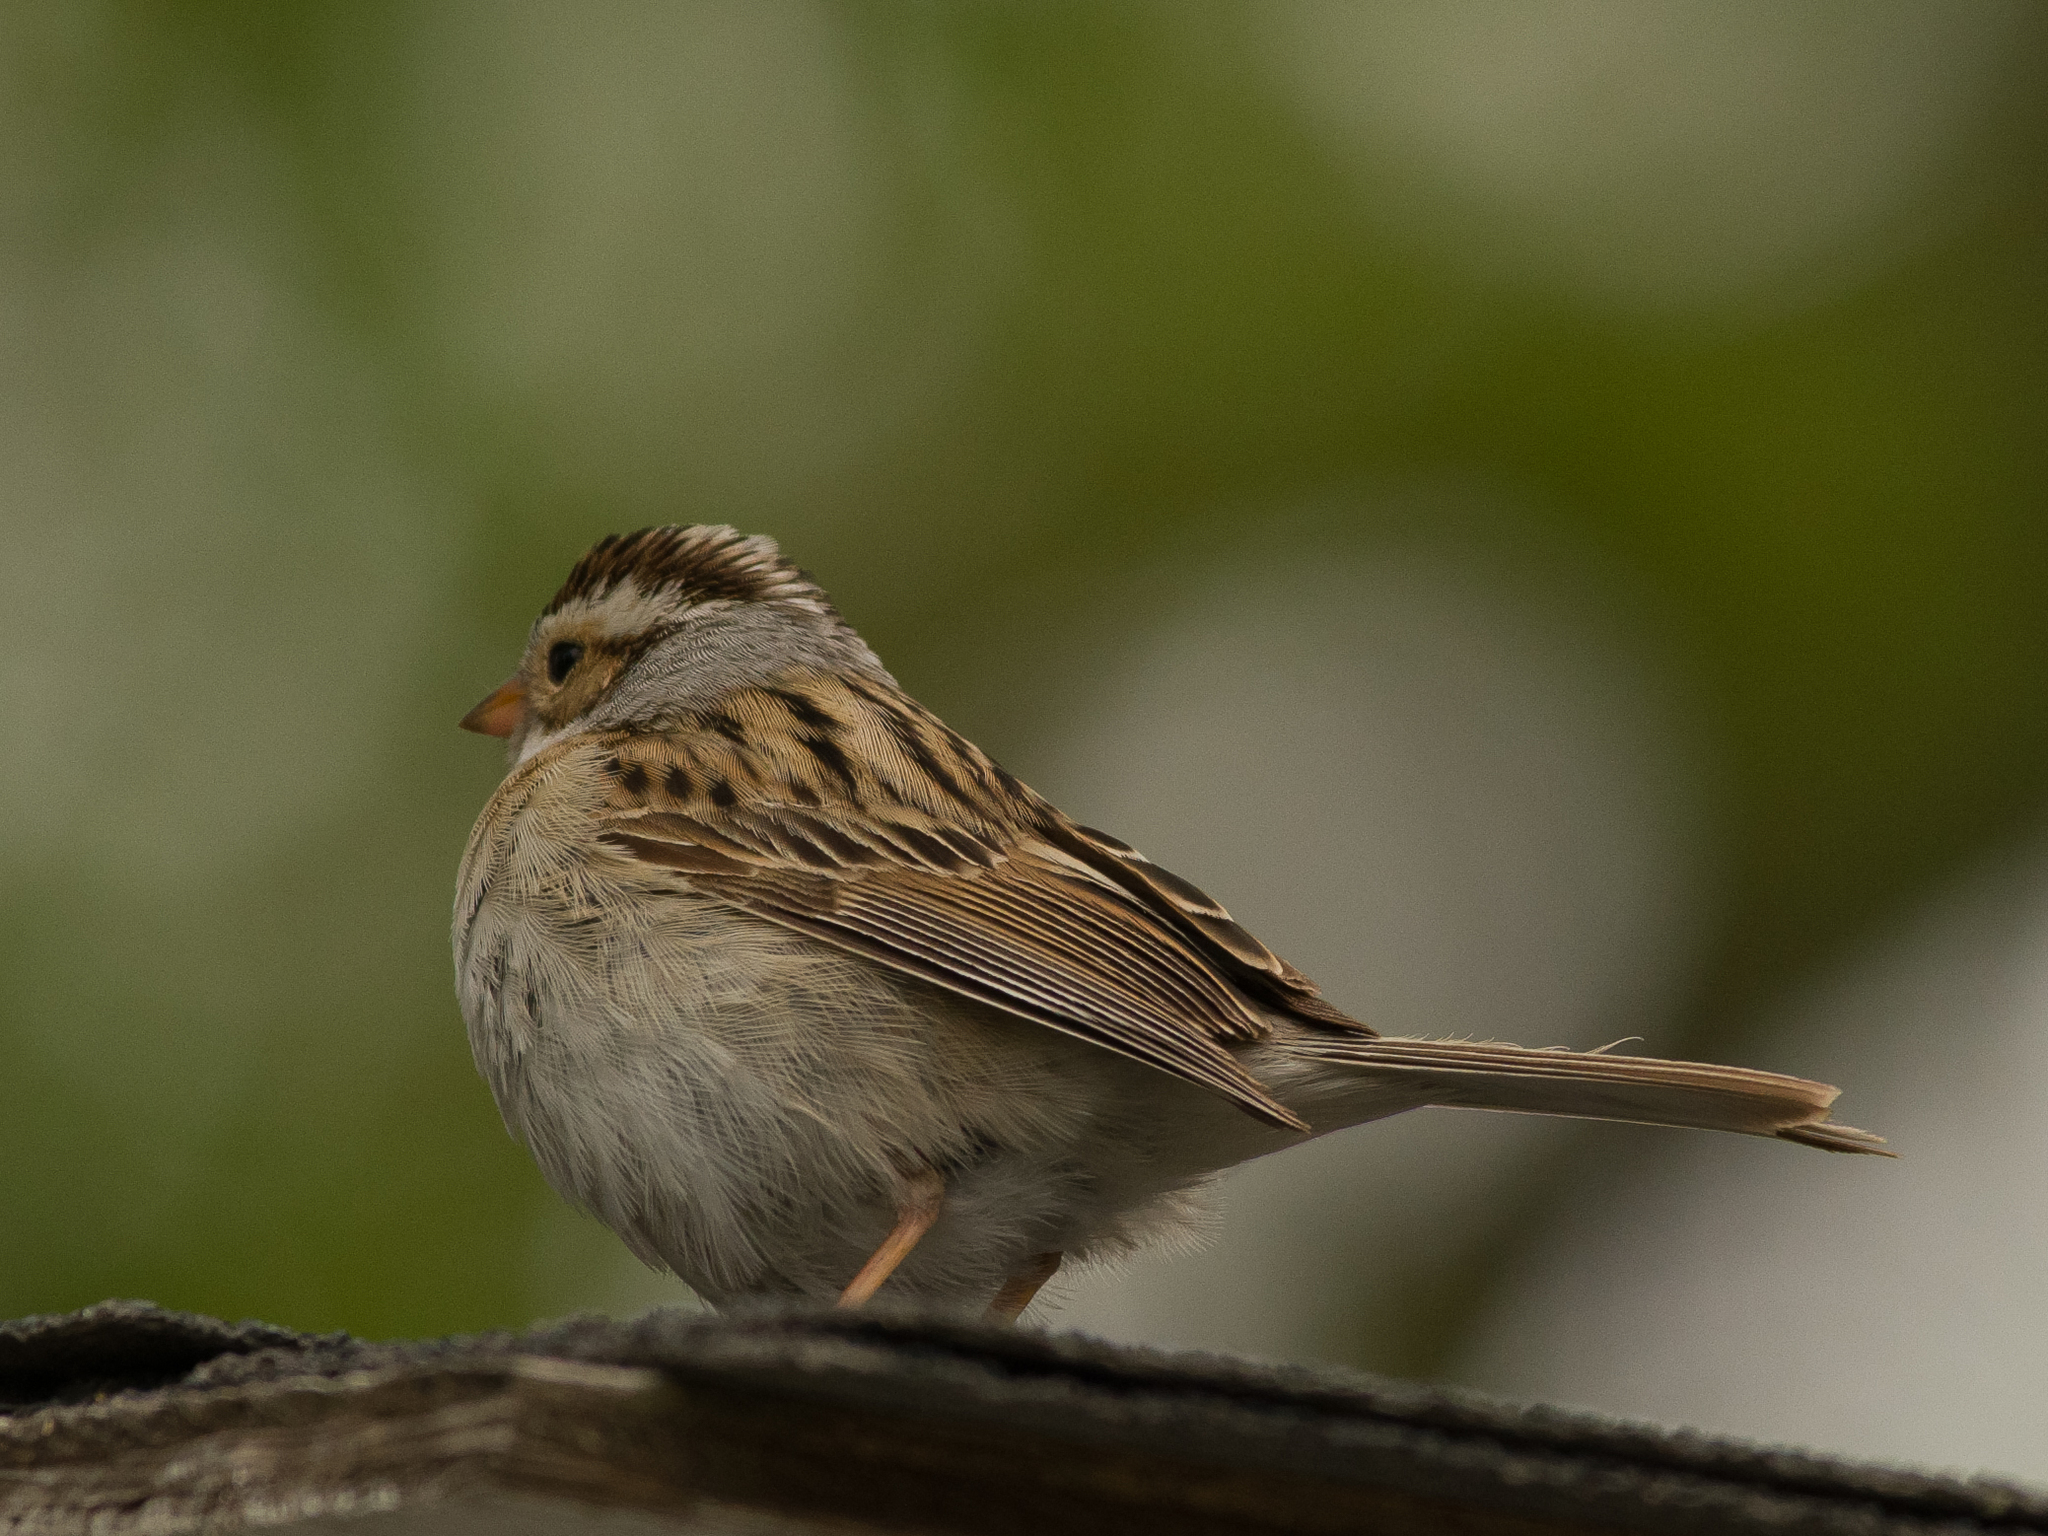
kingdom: Animalia
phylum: Chordata
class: Aves
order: Passeriformes
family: Passerellidae
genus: Spizella
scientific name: Spizella pallida
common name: Clay-colored sparrow
